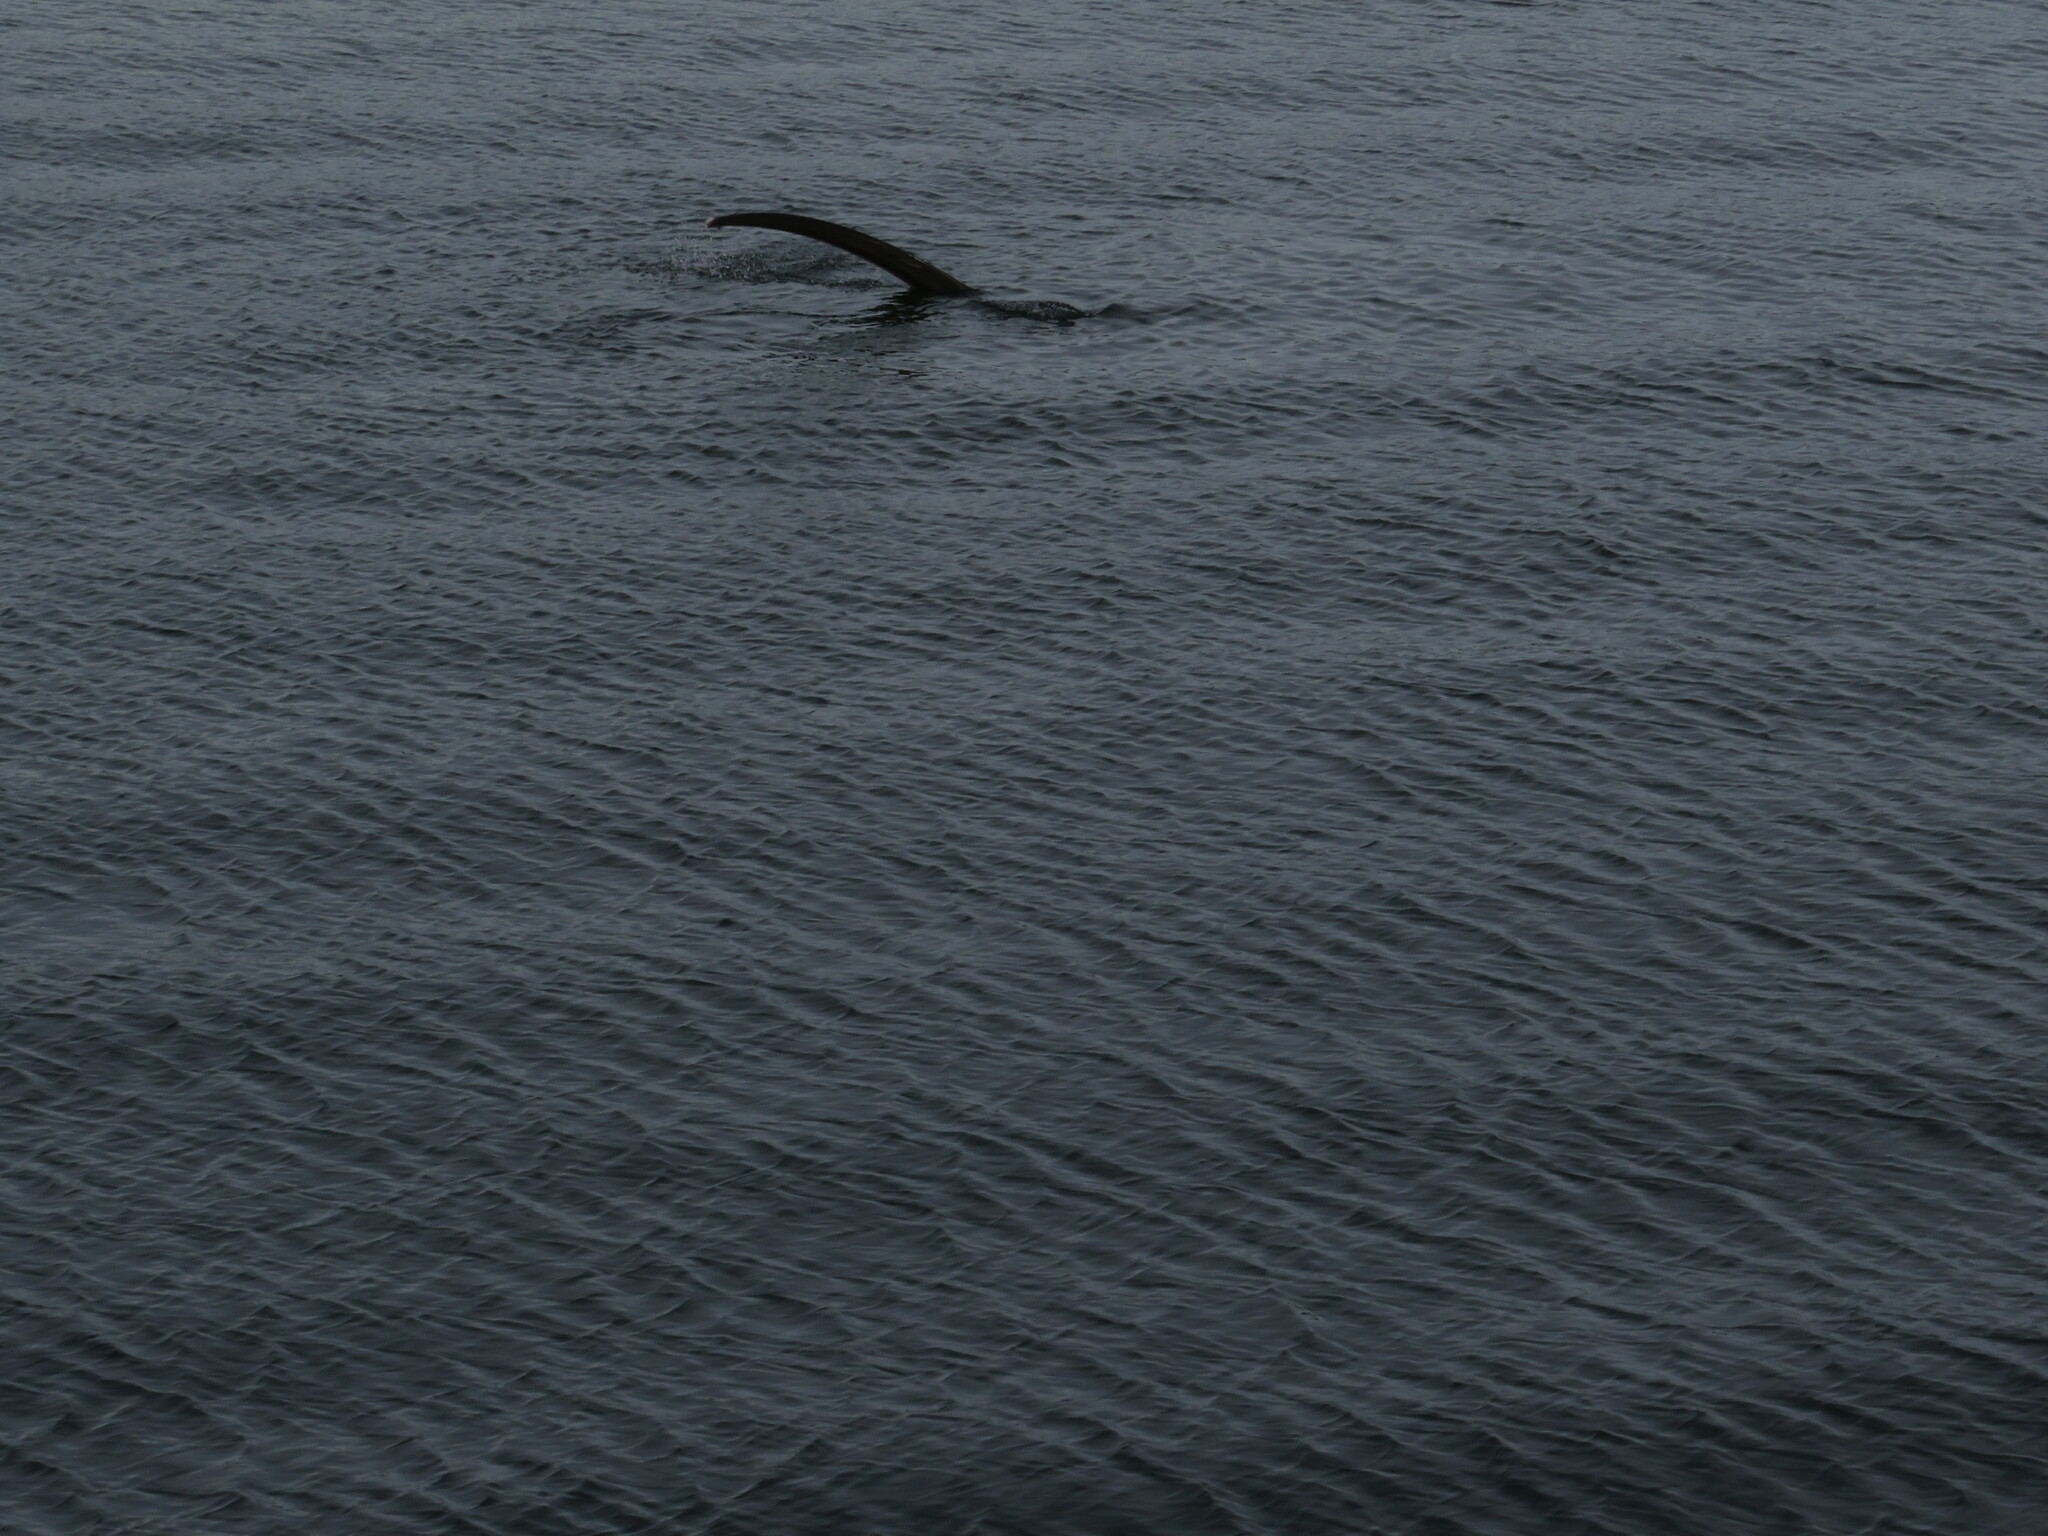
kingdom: Animalia
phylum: Chordata
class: Elasmobranchii
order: Lamniformes
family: Alopiidae
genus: Alopias
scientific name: Alopias vulpinus
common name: Thresher shark
